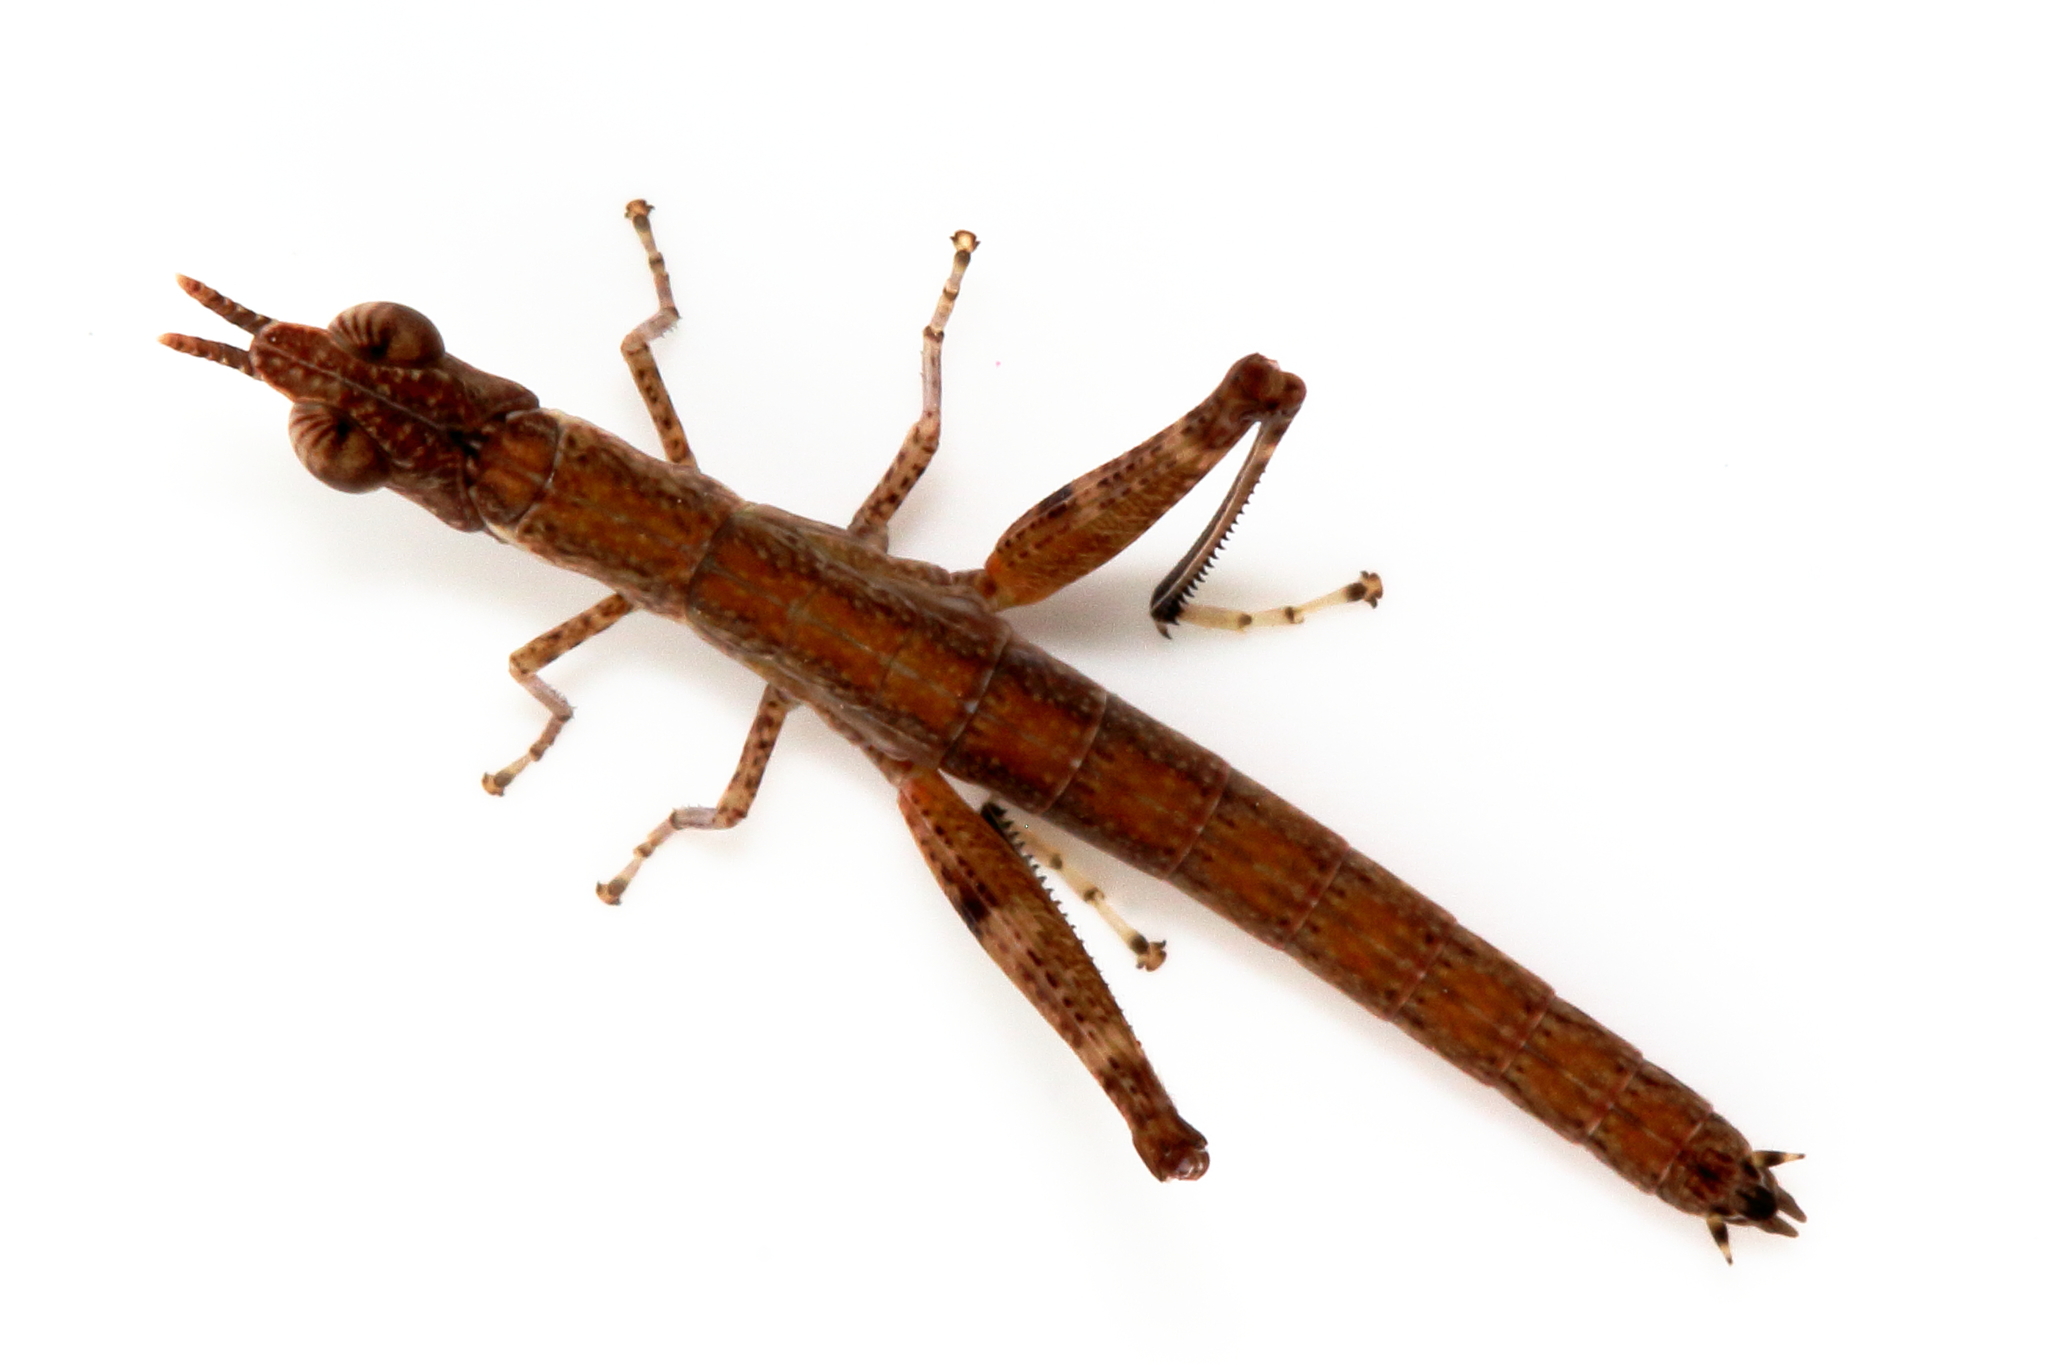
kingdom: Animalia
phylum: Arthropoda
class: Insecta
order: Orthoptera
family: Morabidae
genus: Micromeeka
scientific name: Micromeeka minuta
